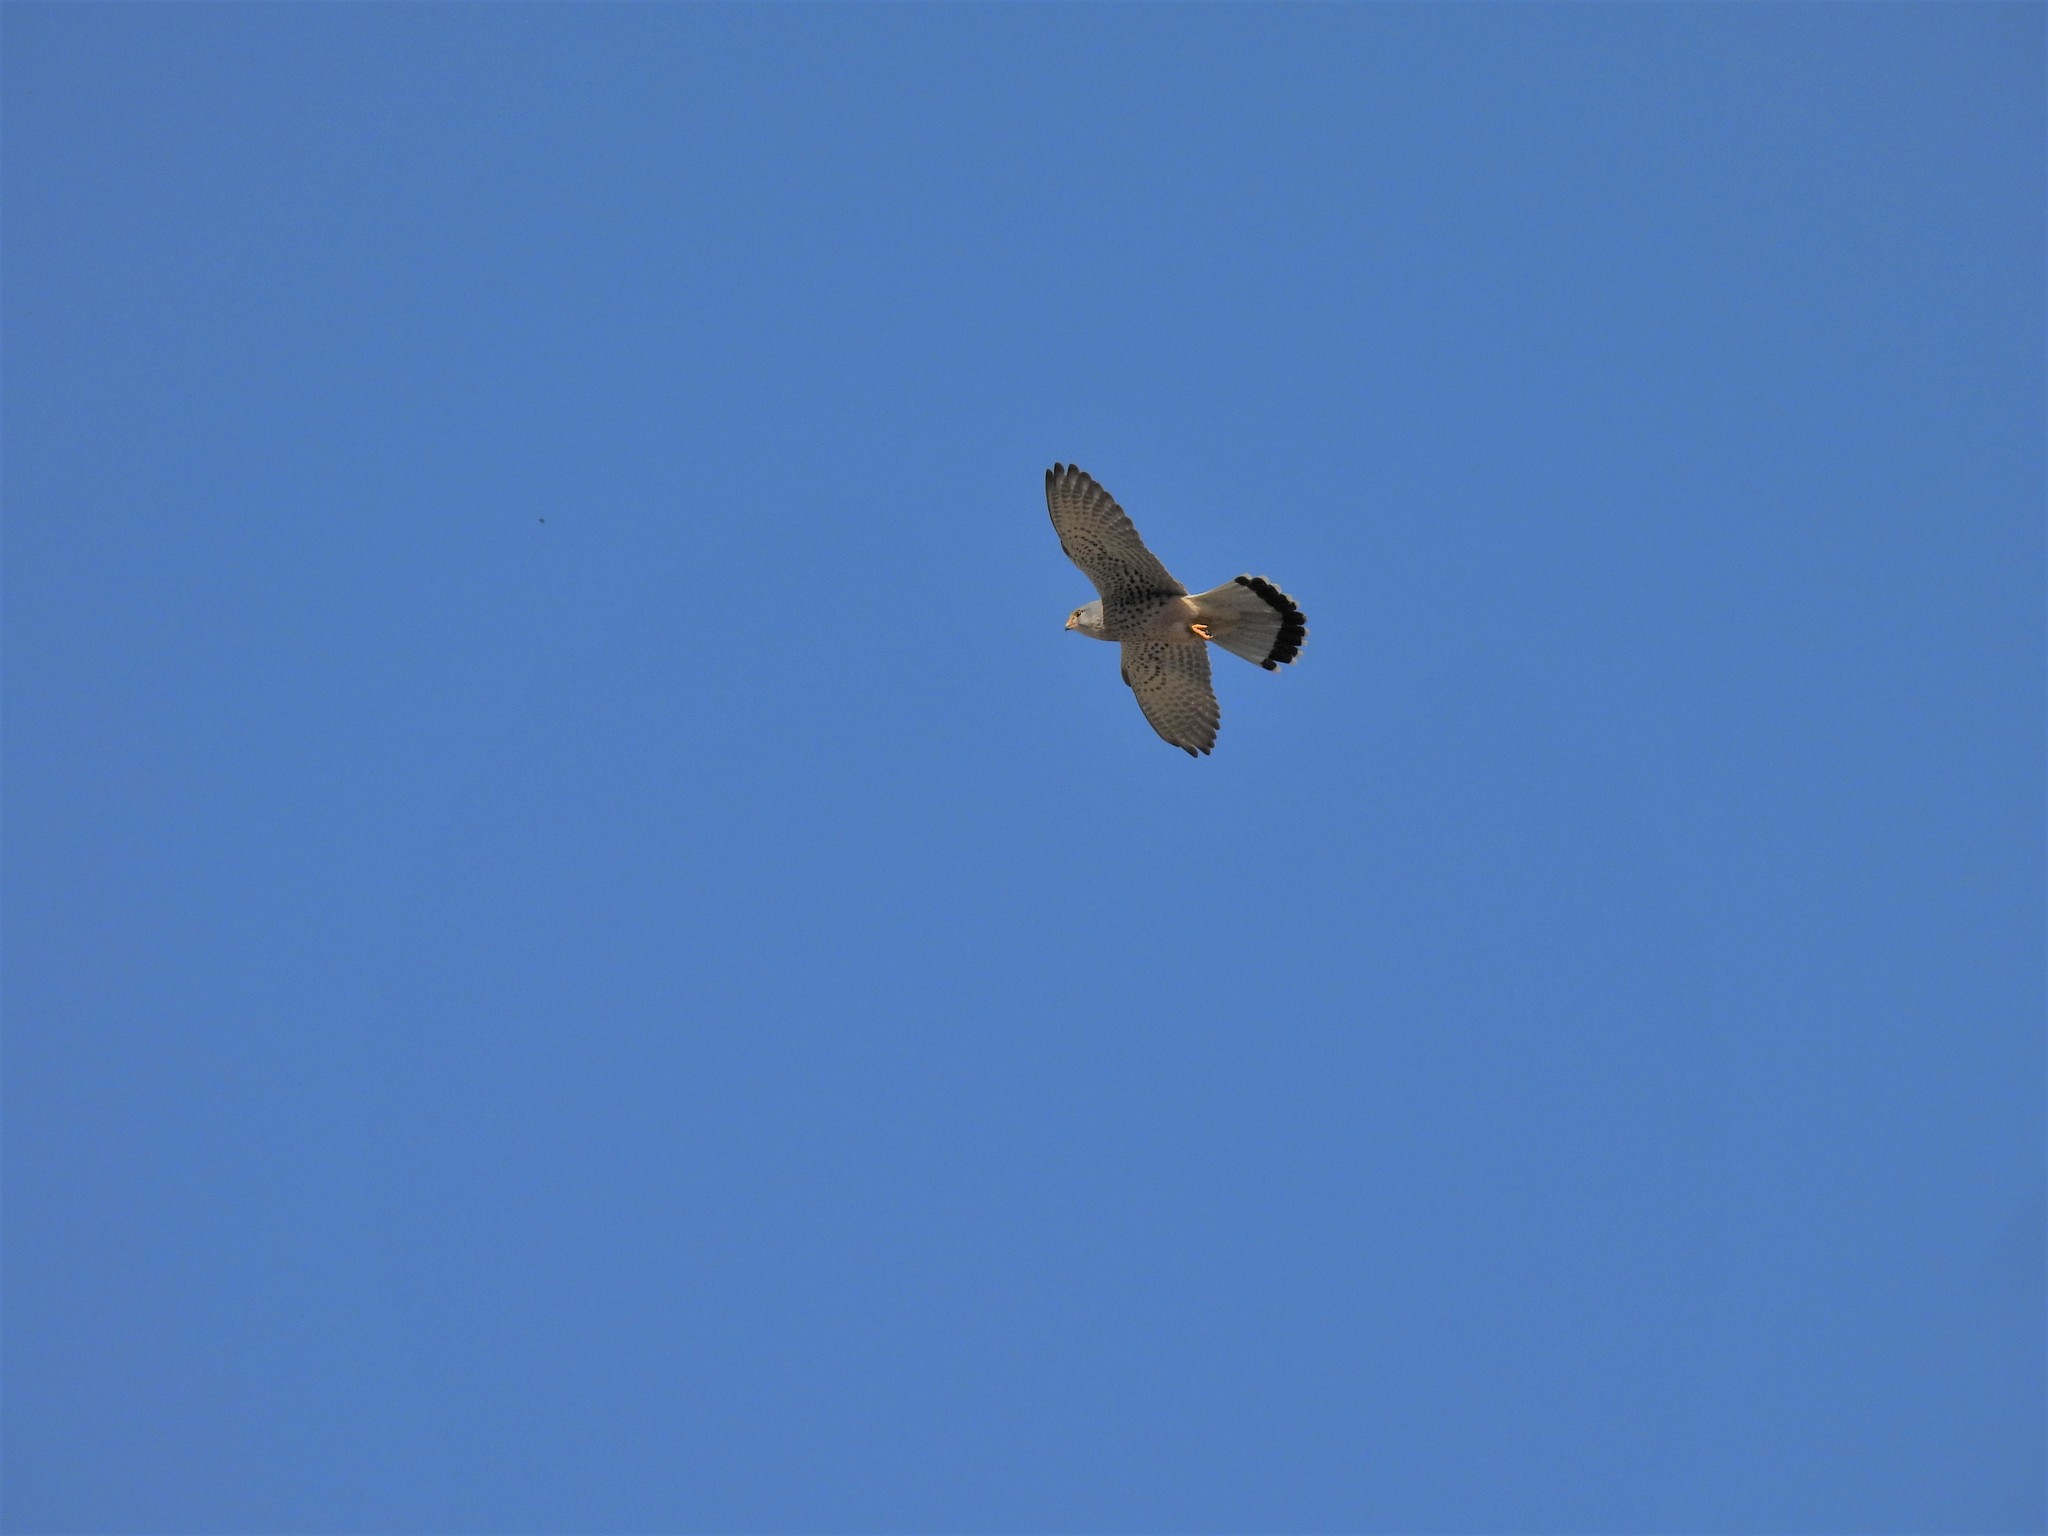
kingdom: Animalia
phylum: Chordata
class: Aves
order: Falconiformes
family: Falconidae
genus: Falco
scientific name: Falco tinnunculus
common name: Common kestrel
